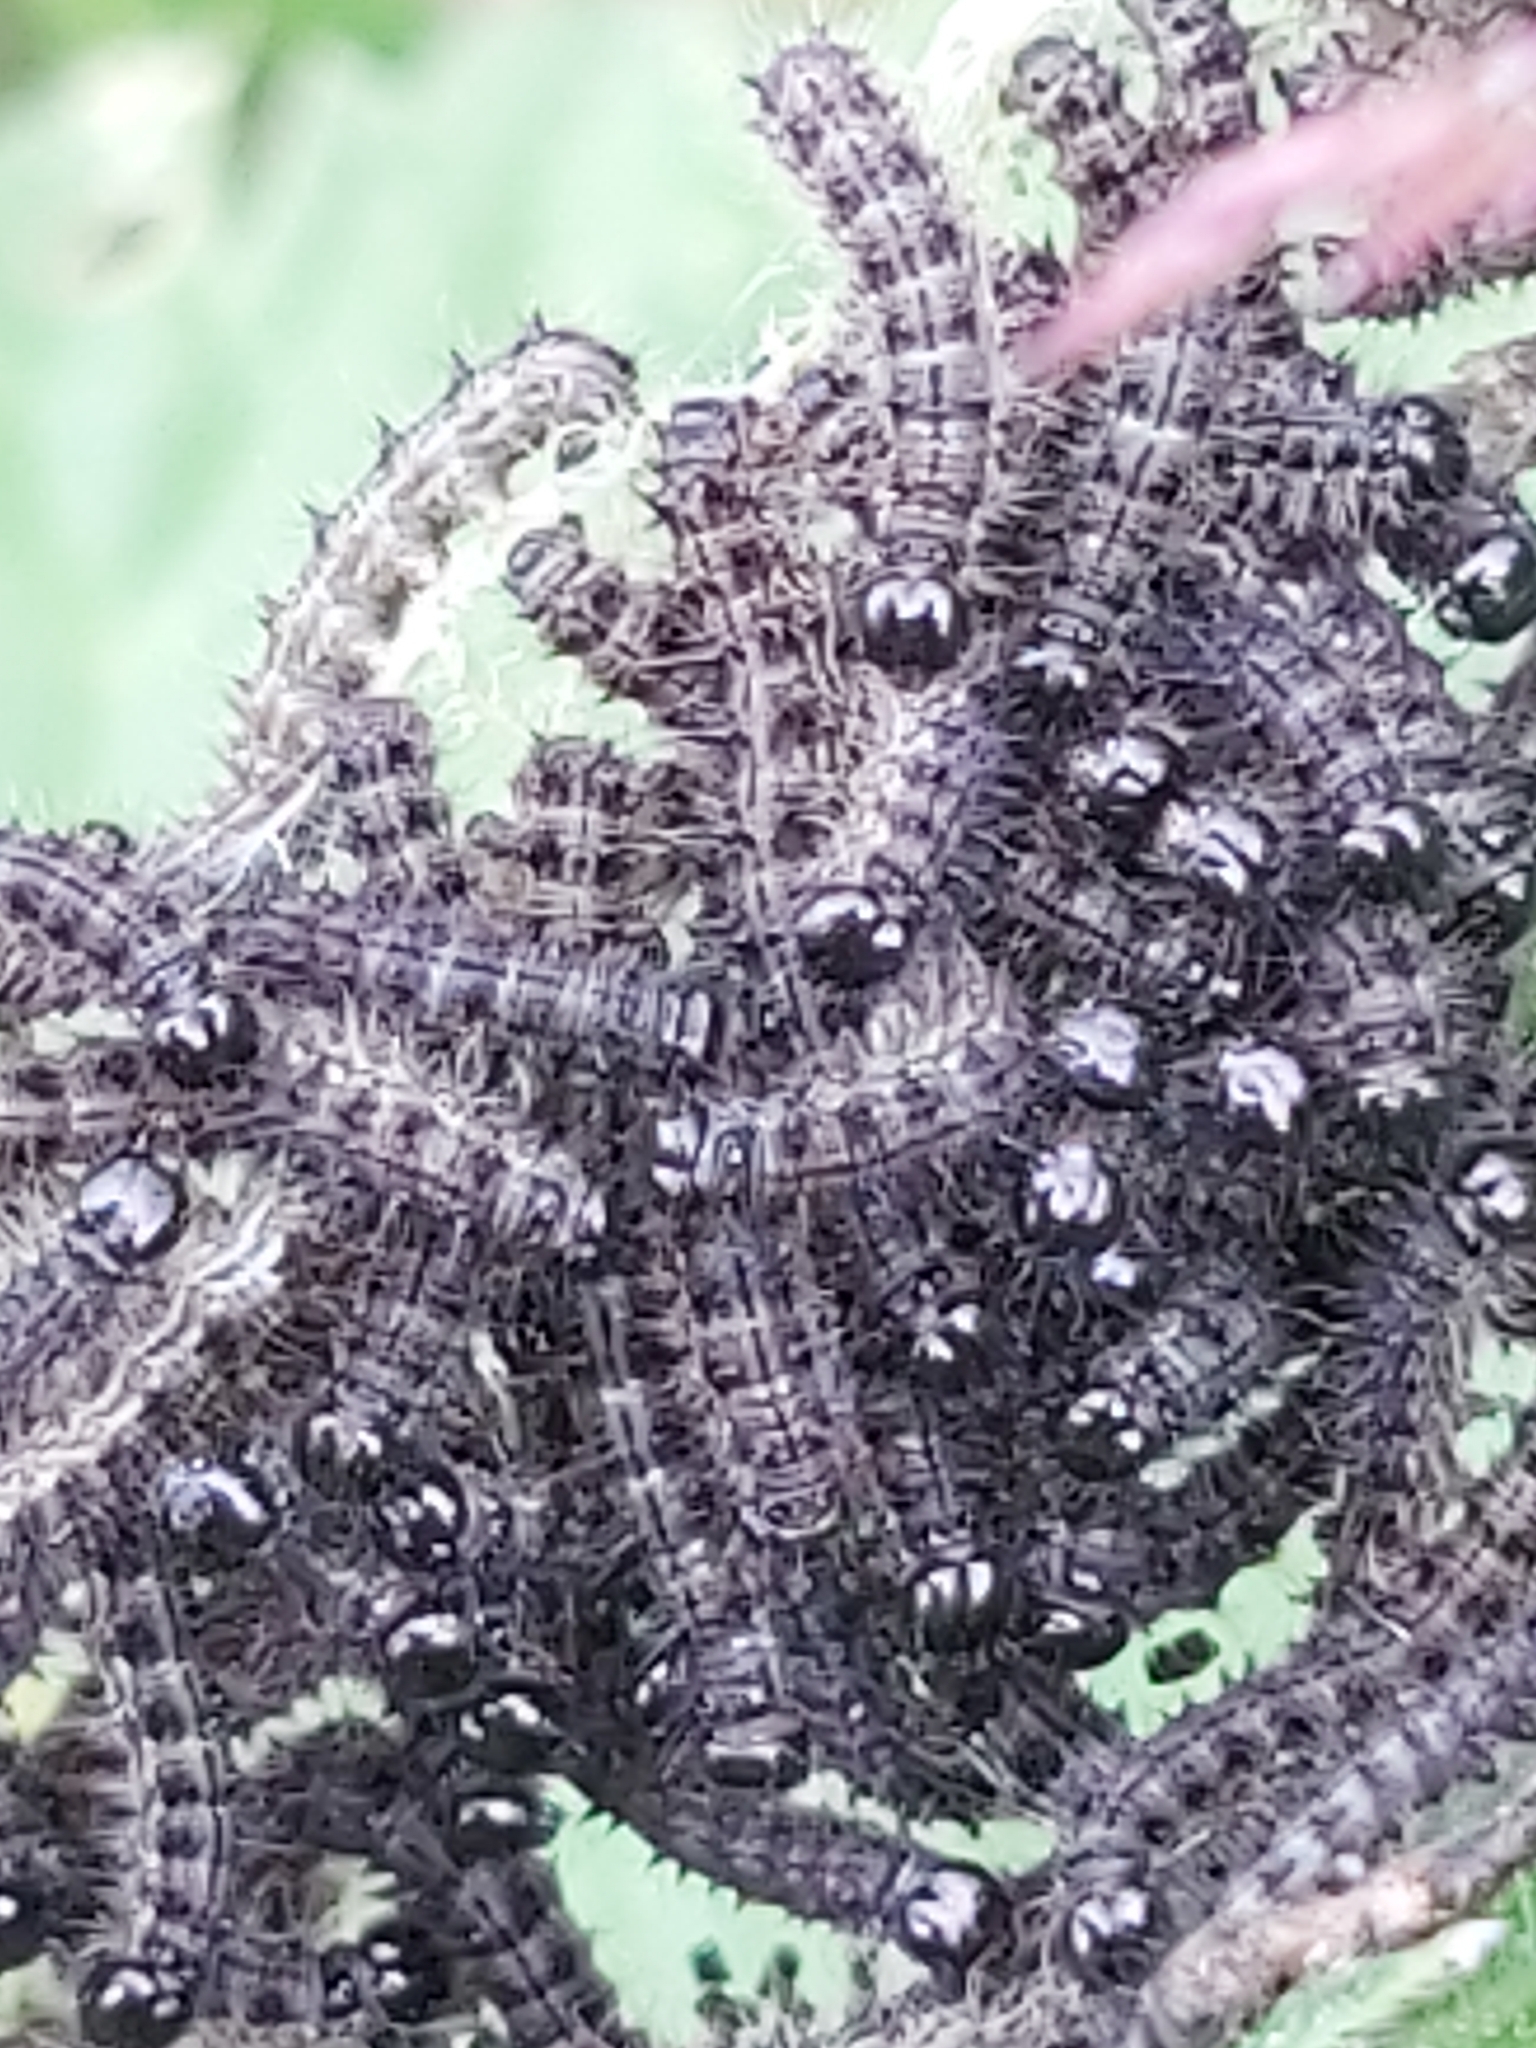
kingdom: Animalia
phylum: Arthropoda
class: Insecta
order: Lepidoptera
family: Nymphalidae
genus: Aglais
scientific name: Aglais urticae
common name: Small tortoiseshell
